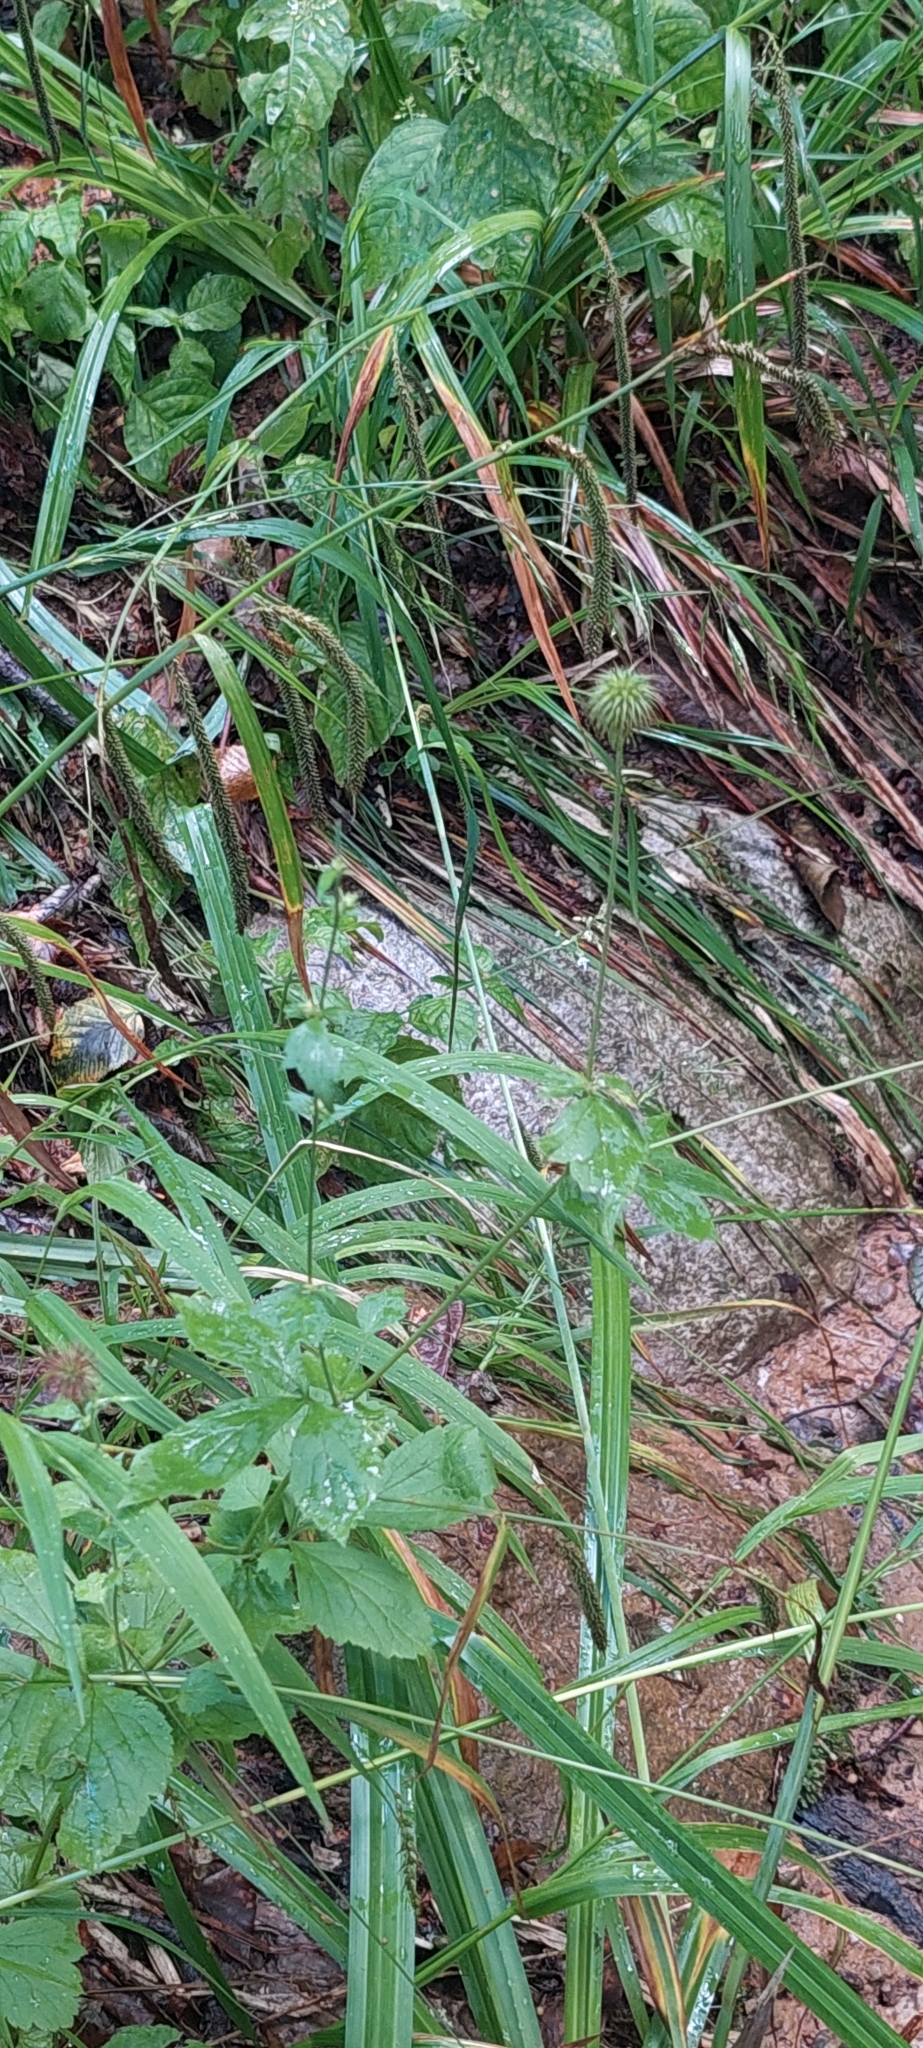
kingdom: Plantae
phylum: Tracheophyta
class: Magnoliopsida
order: Rosales
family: Rosaceae
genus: Geum
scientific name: Geum urbanum
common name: Wood avens
